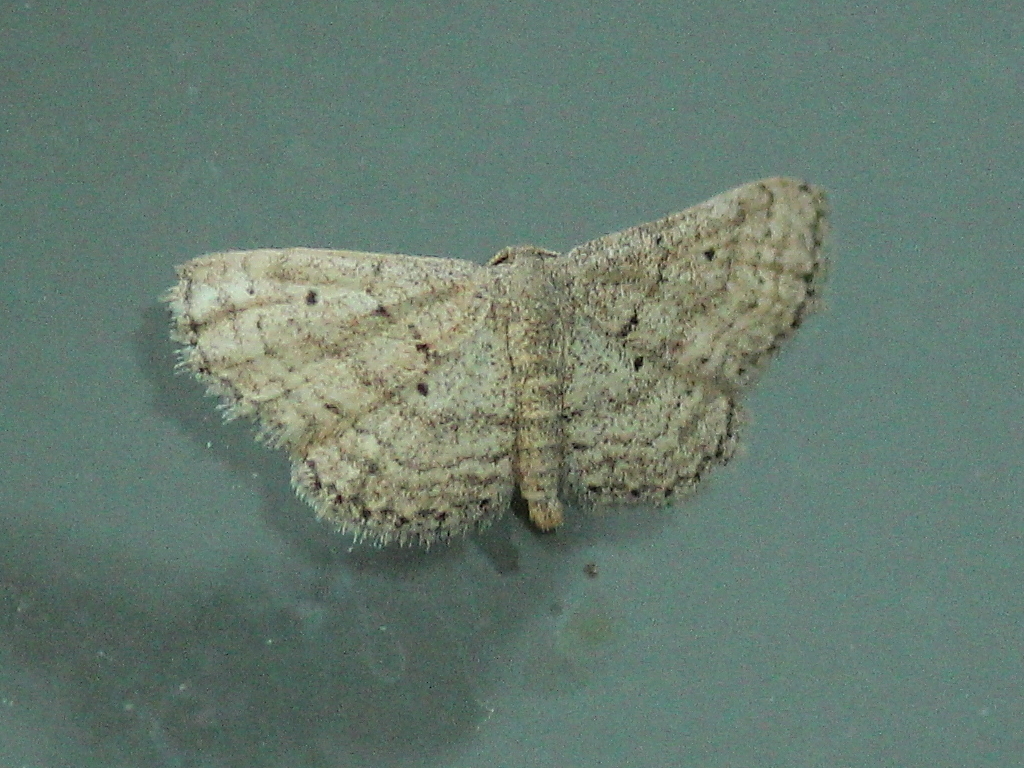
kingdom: Animalia
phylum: Arthropoda
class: Insecta
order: Lepidoptera
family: Geometridae
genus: Lobocleta
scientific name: Lobocleta ossularia
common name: Drab brown wave
